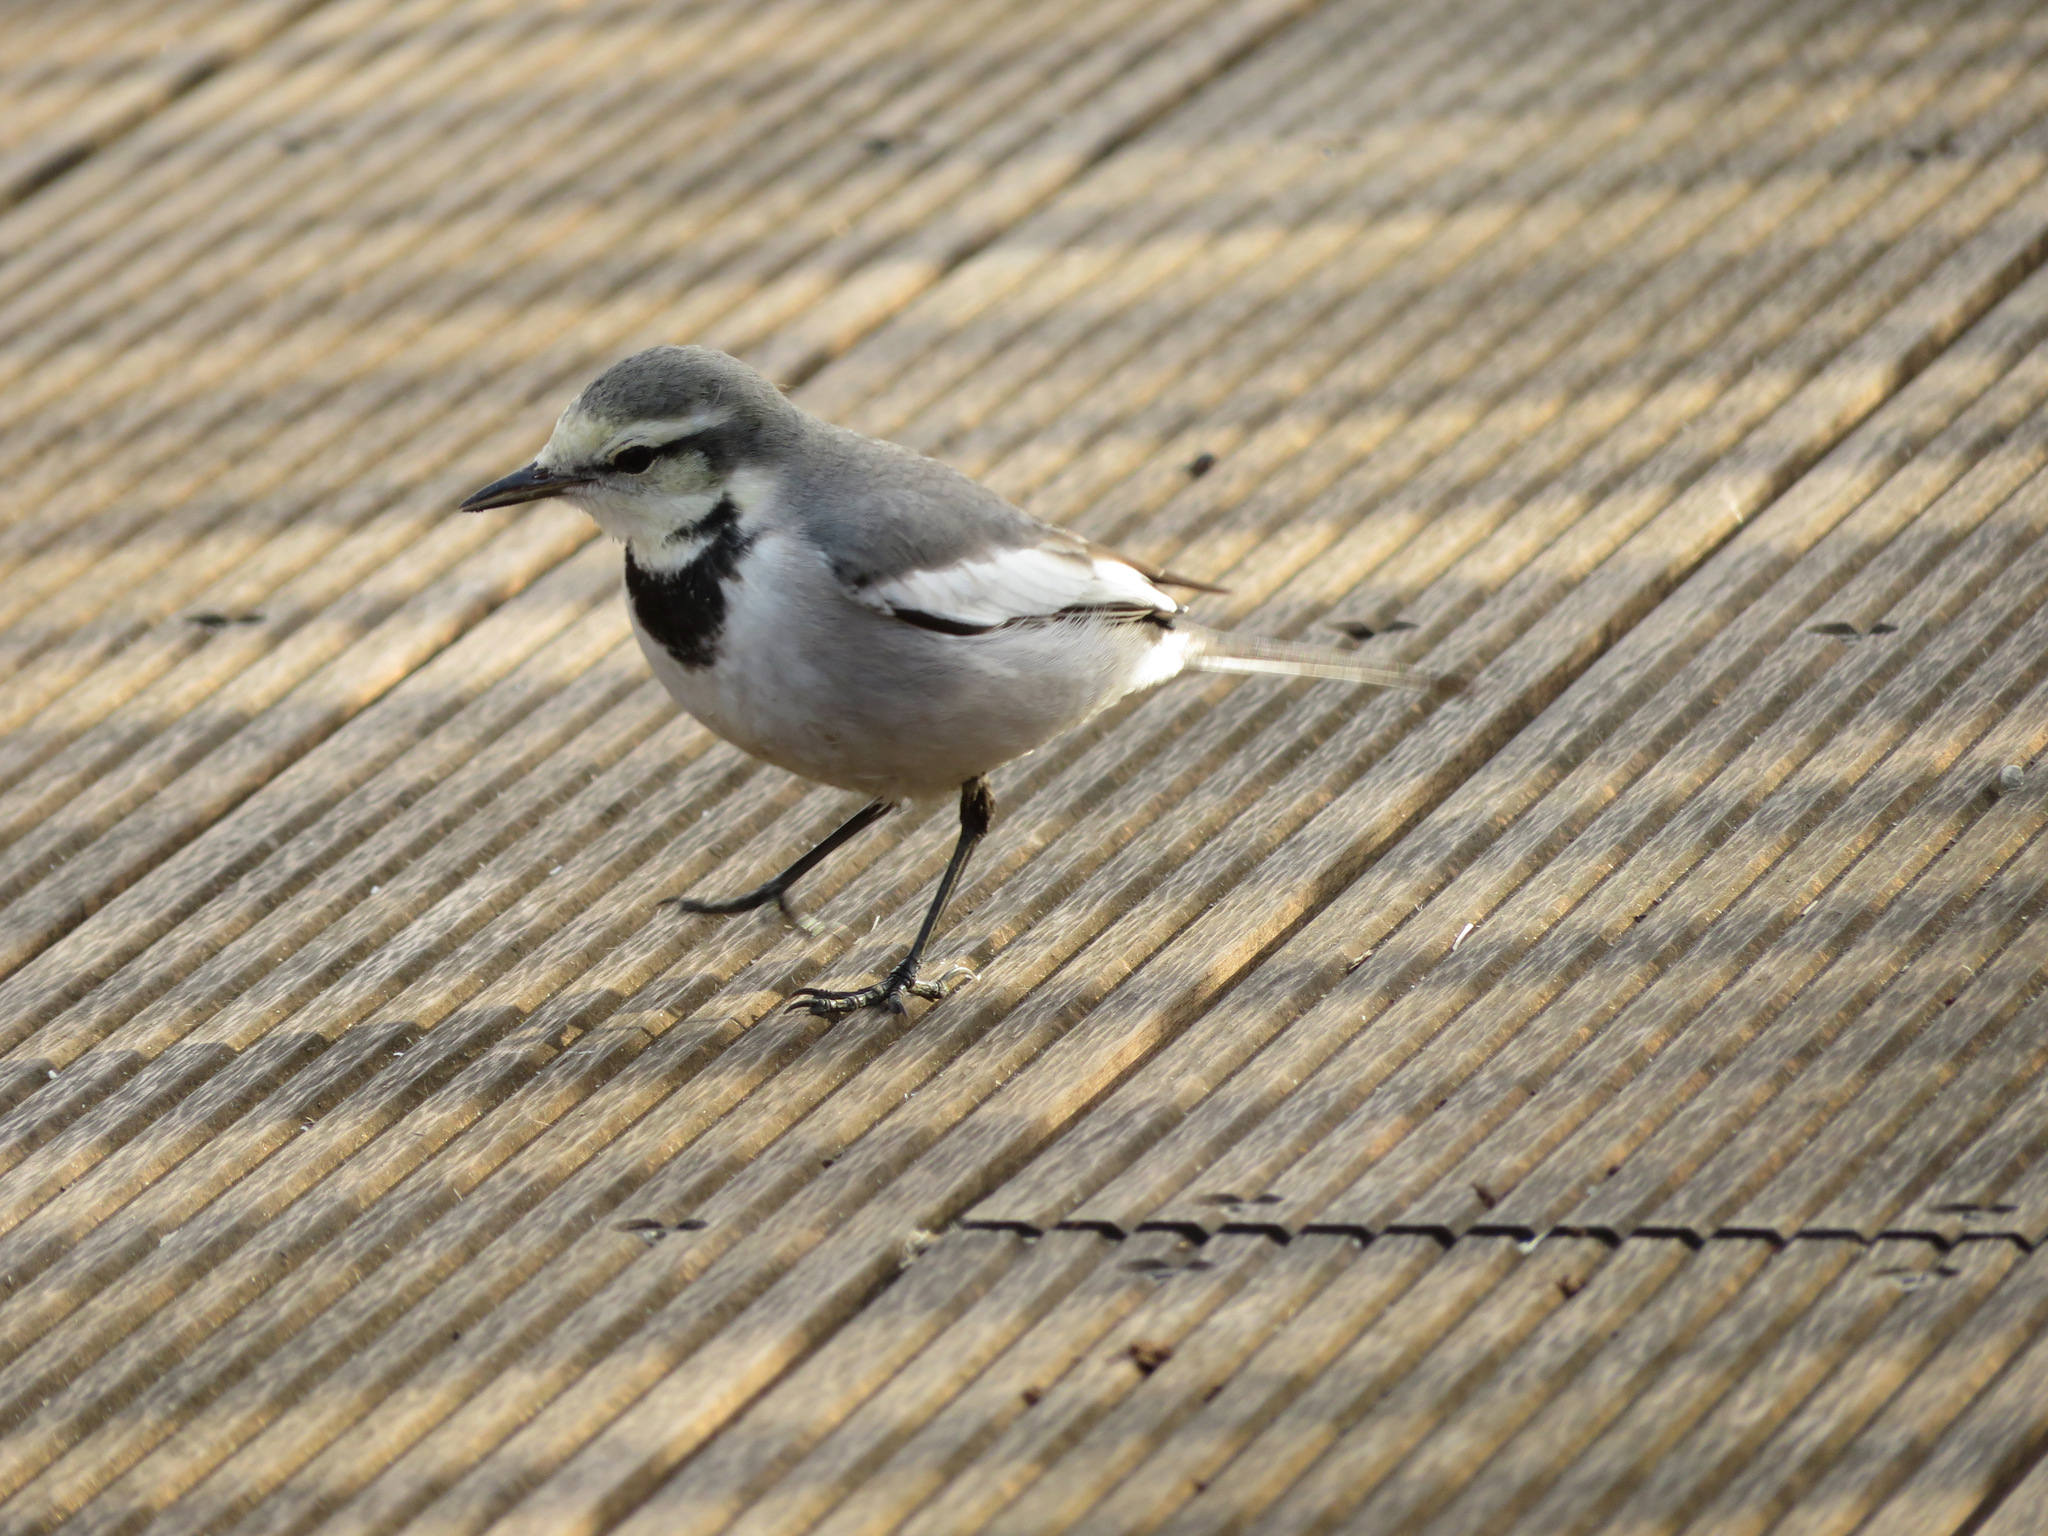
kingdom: Animalia
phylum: Chordata
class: Aves
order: Passeriformes
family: Motacillidae
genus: Motacilla
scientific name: Motacilla alba
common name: White wagtail
